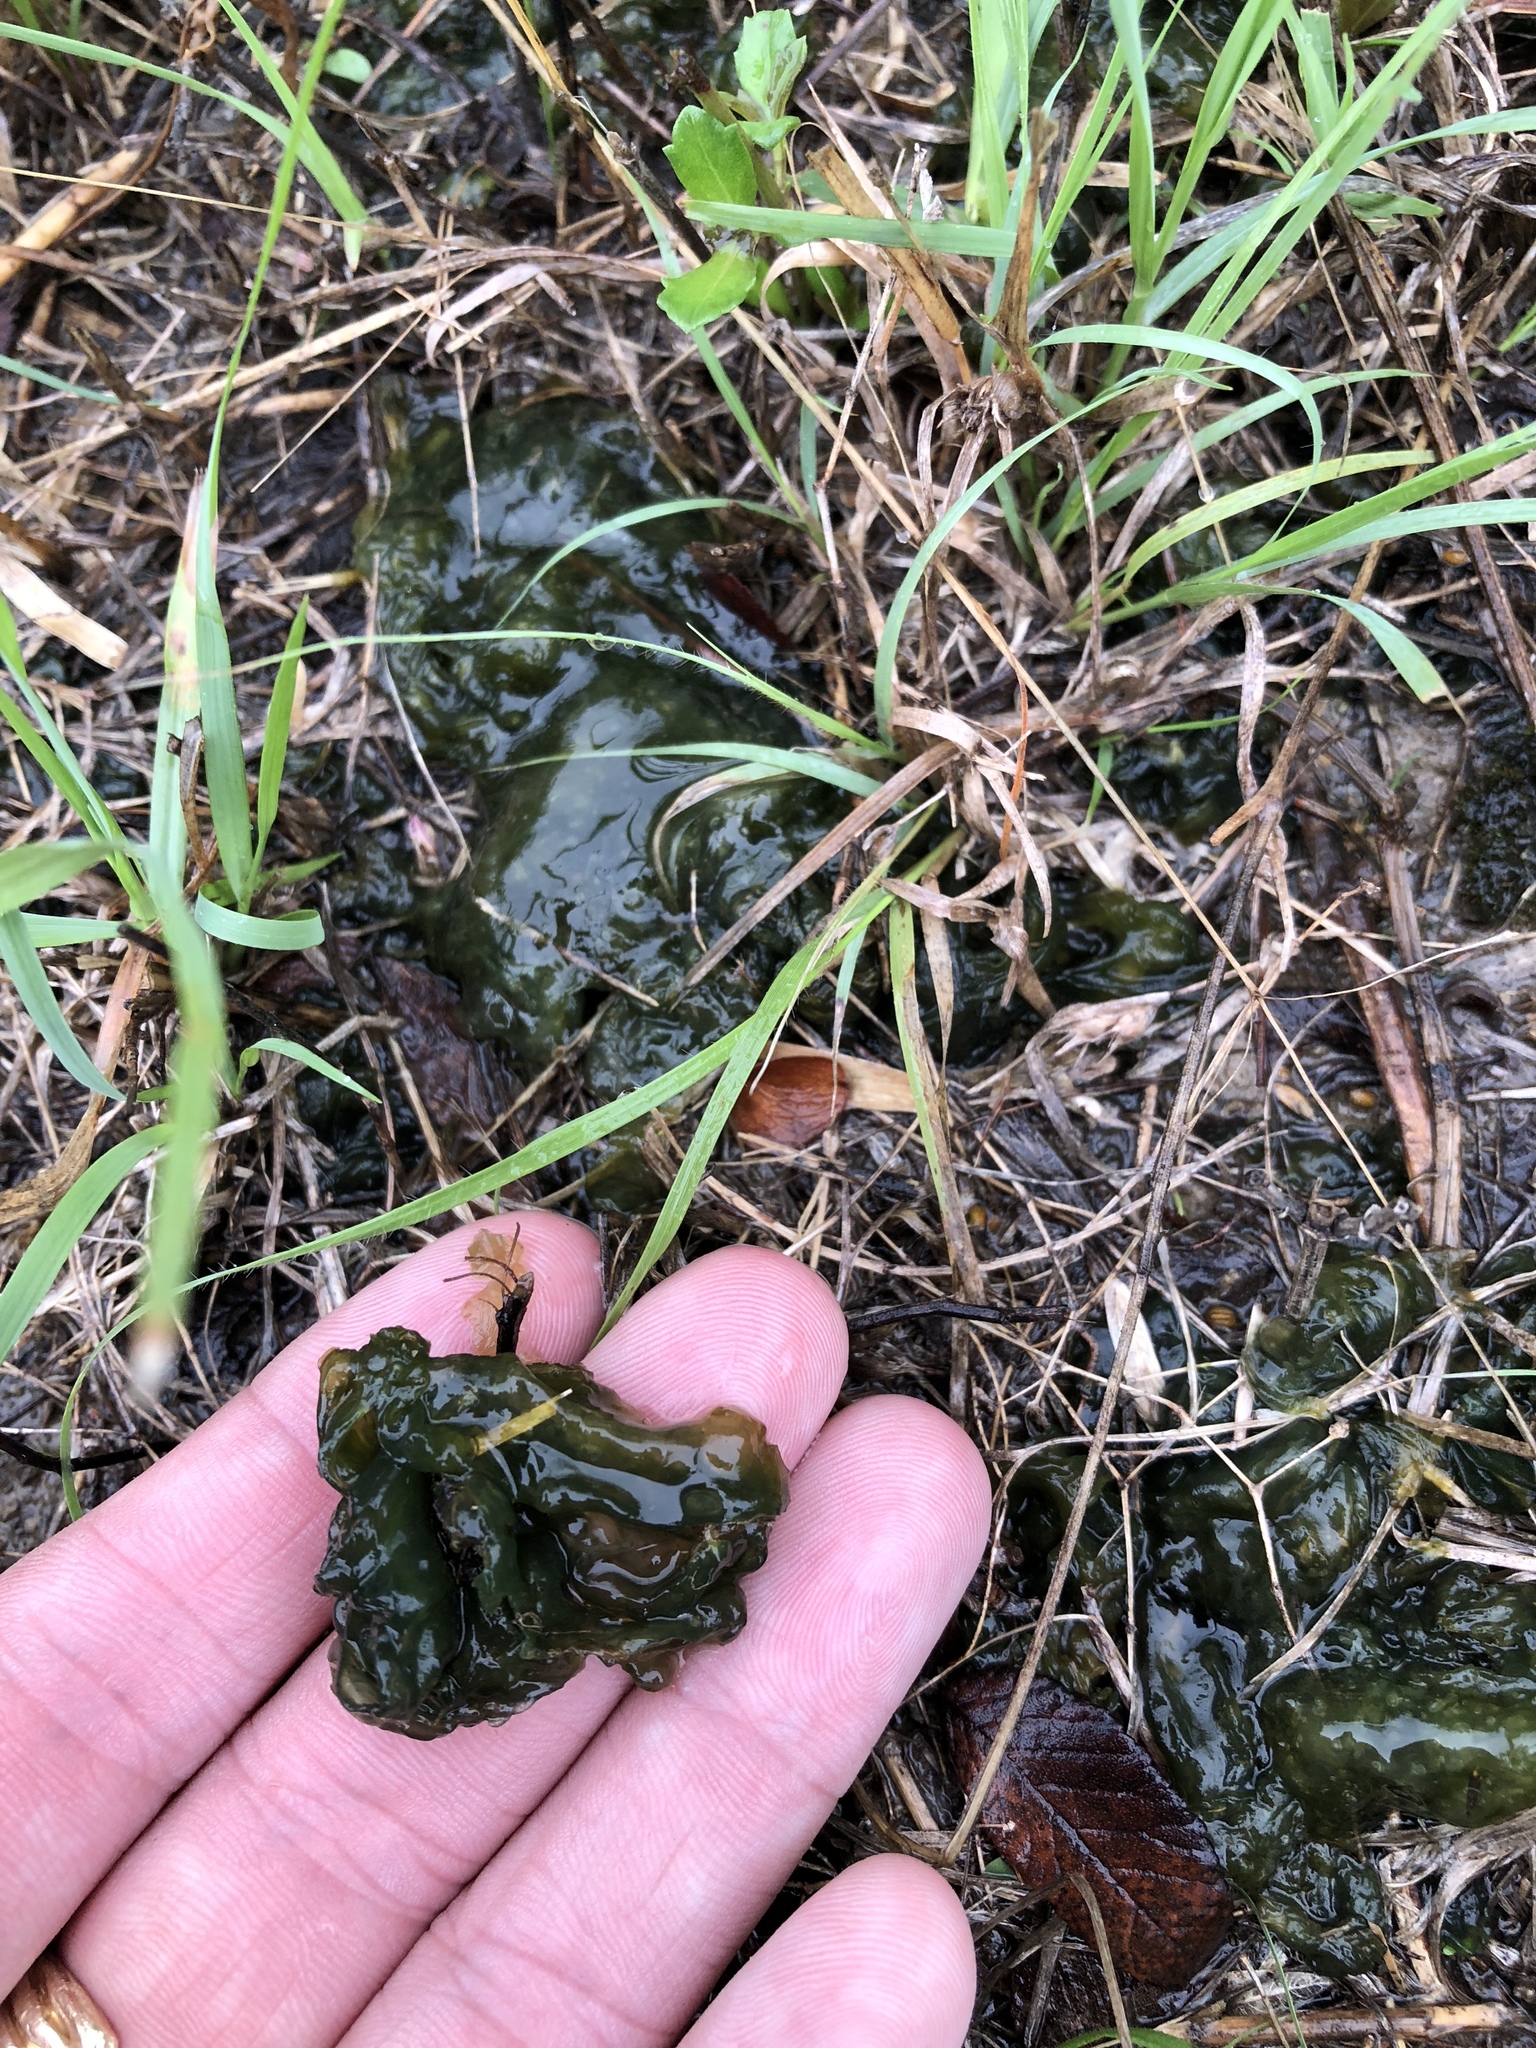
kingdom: Bacteria
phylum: Cyanobacteria
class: Cyanobacteriia
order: Cyanobacteriales
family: Nostocaceae
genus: Nostoc
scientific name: Nostoc commune
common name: Star jelly
